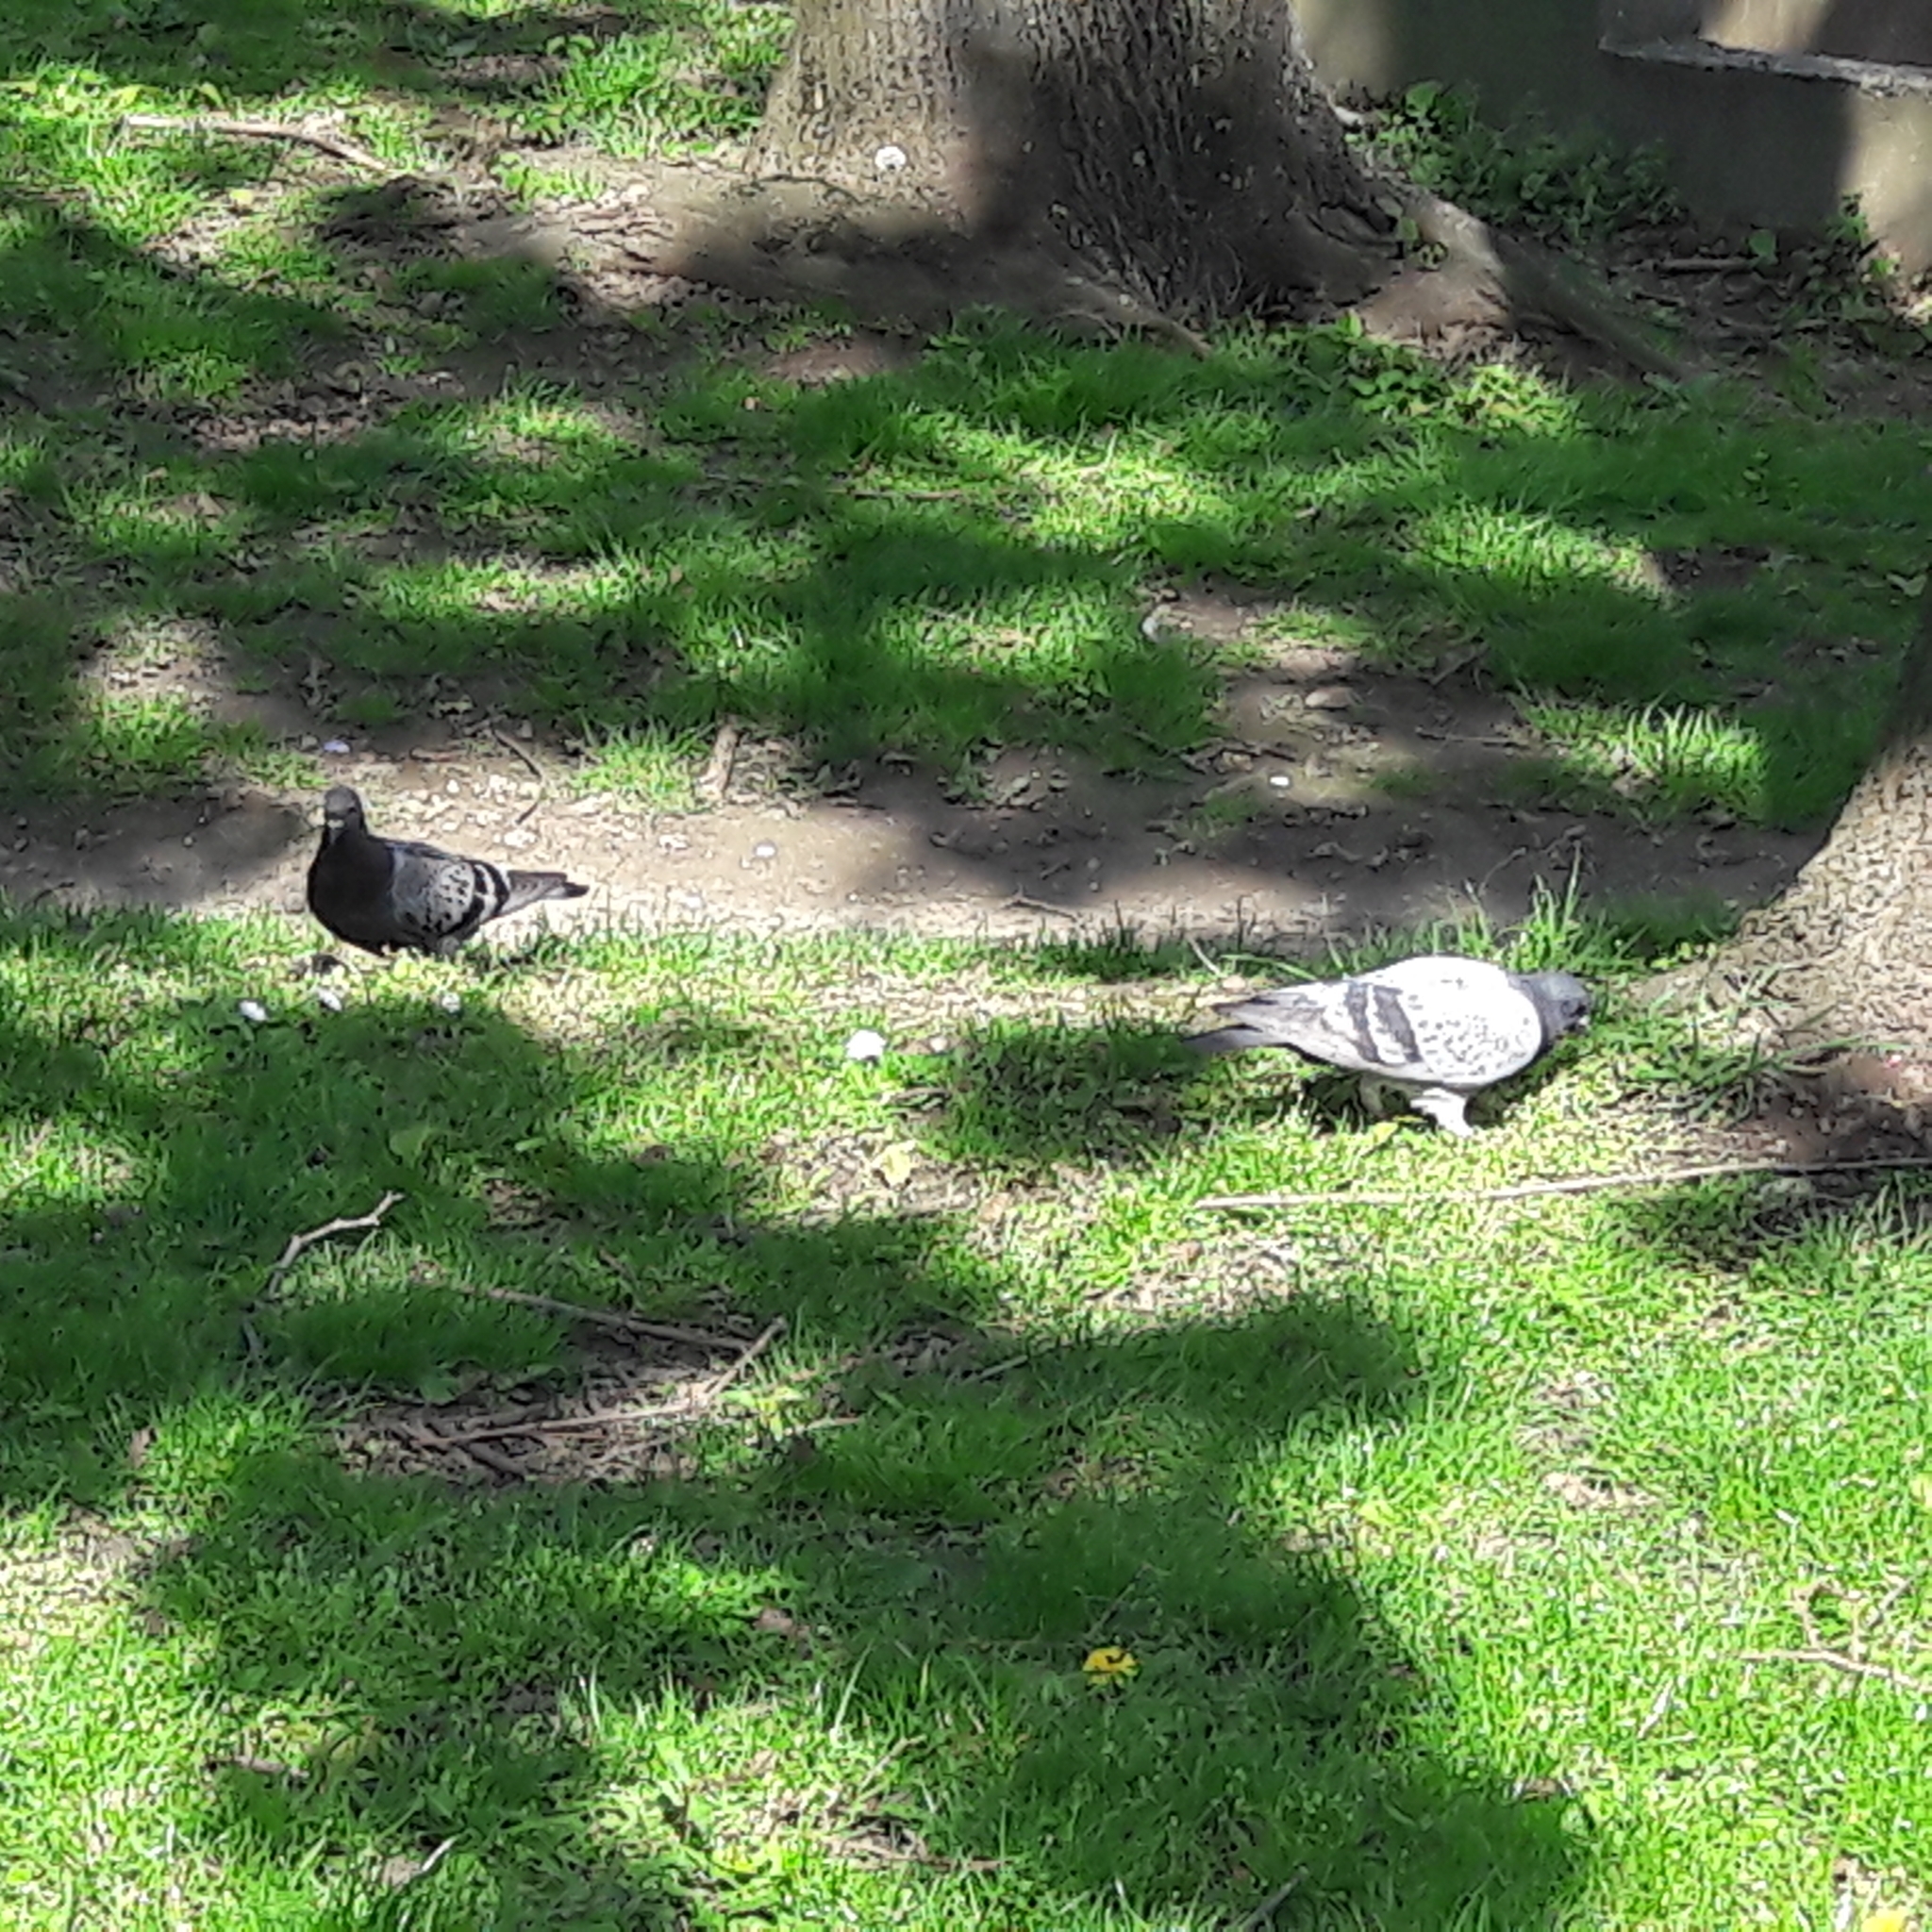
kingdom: Animalia
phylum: Chordata
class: Aves
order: Columbiformes
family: Columbidae
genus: Columba
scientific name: Columba livia
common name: Rock pigeon
